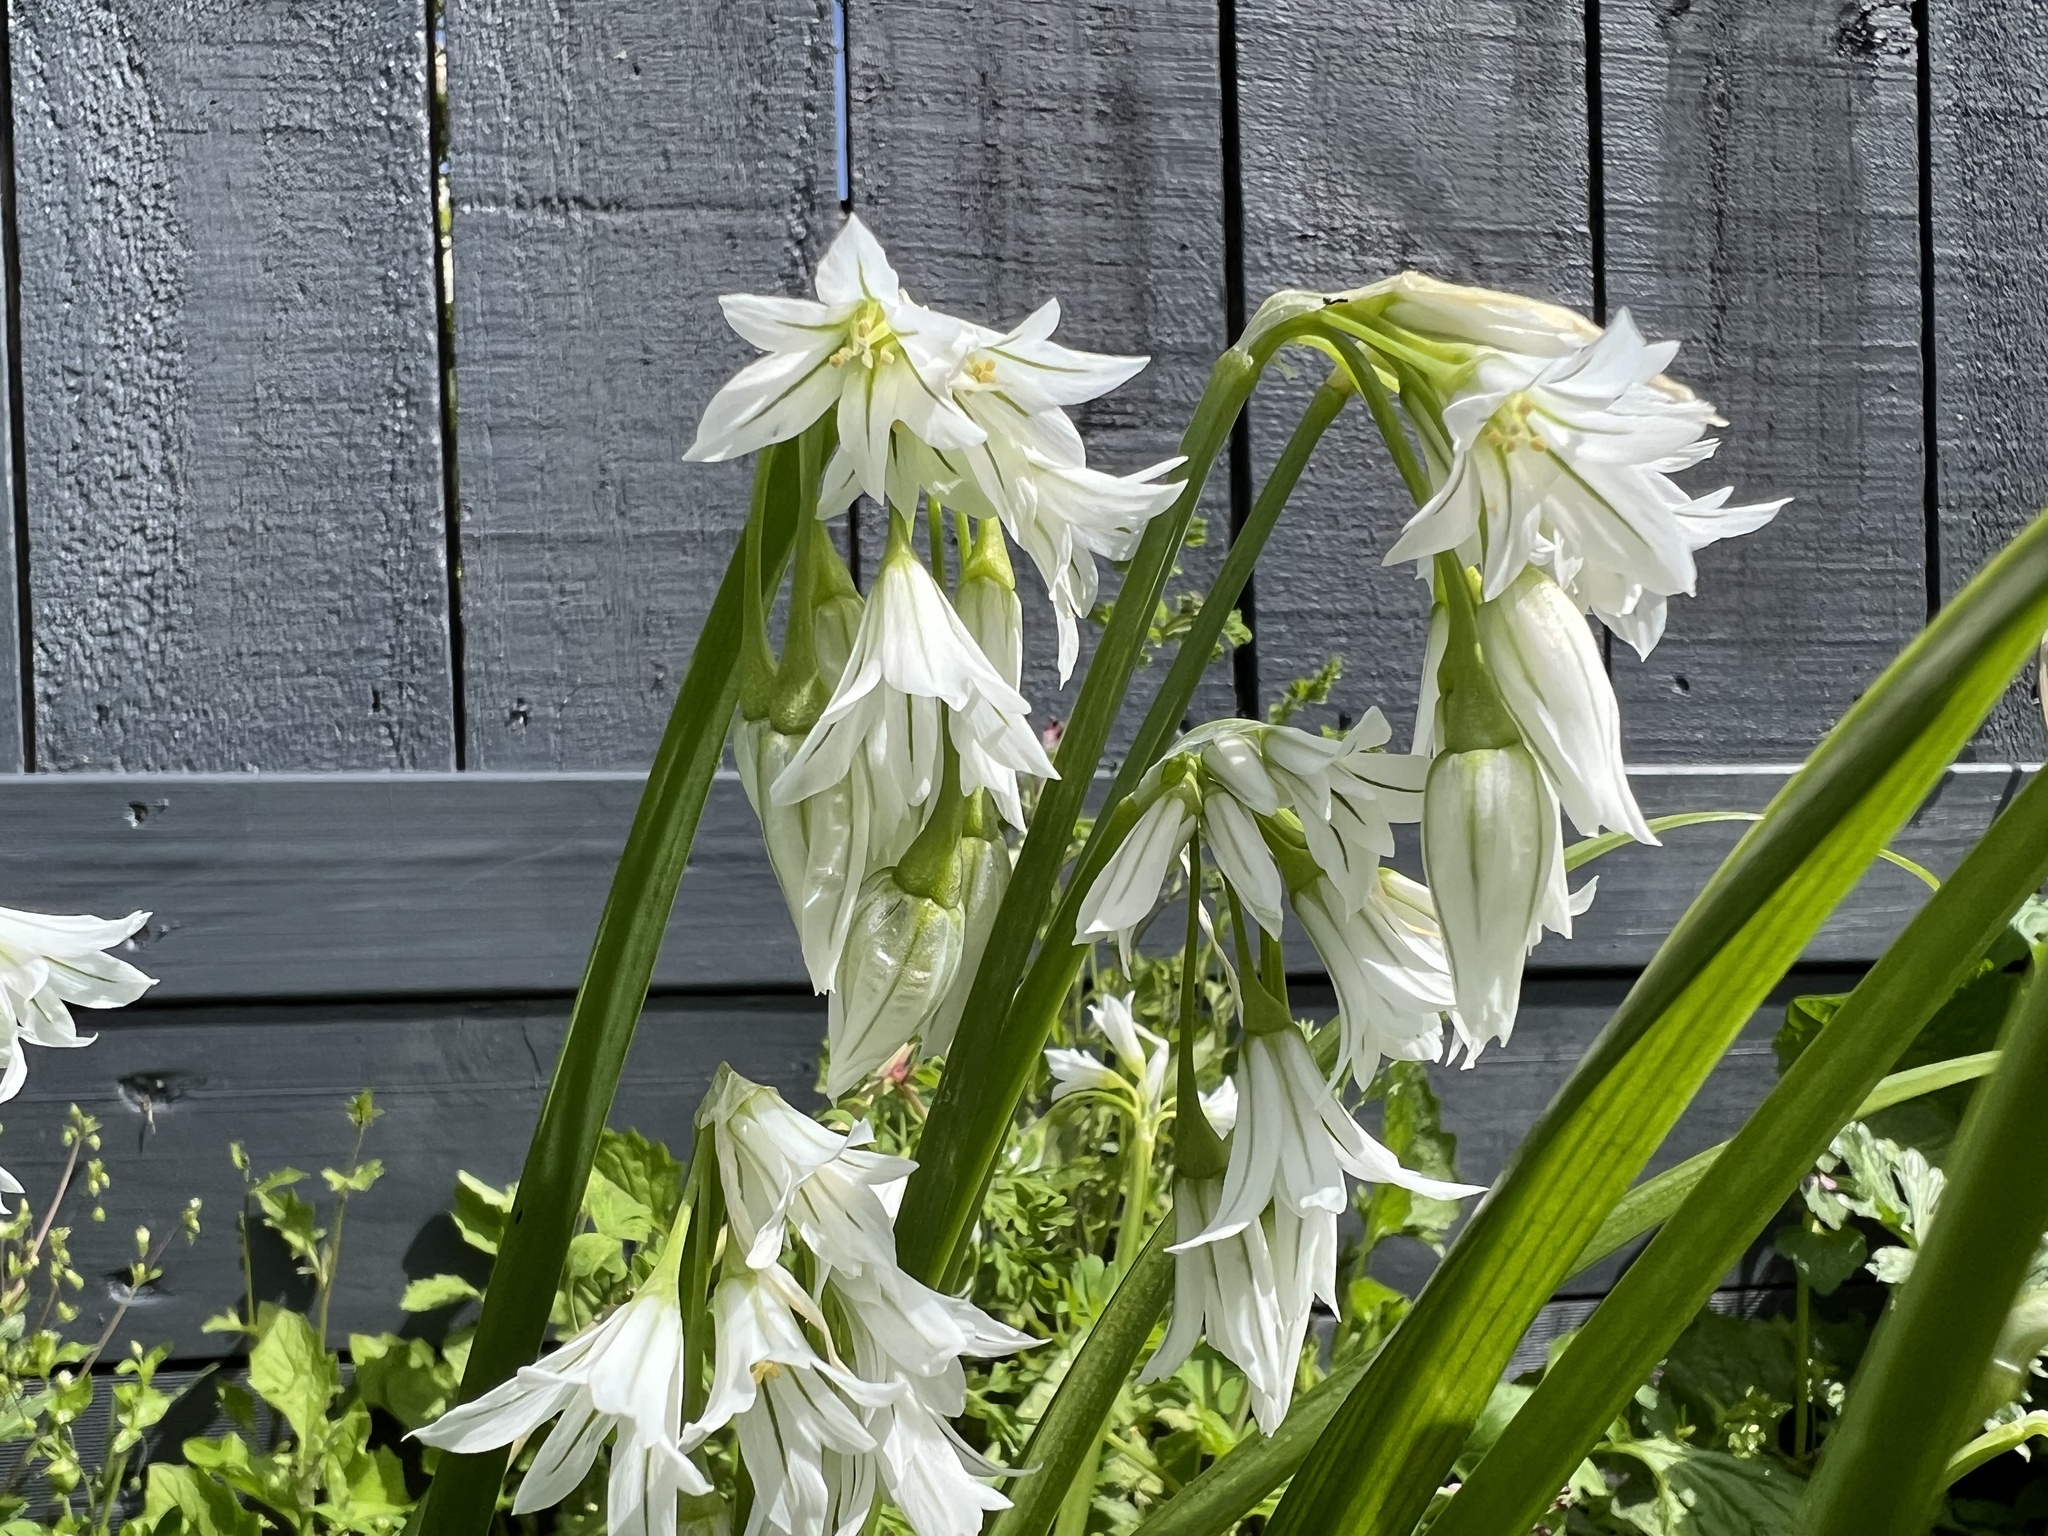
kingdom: Plantae
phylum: Tracheophyta
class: Liliopsida
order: Asparagales
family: Amaryllidaceae
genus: Allium
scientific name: Allium triquetrum
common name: Three-cornered garlic
